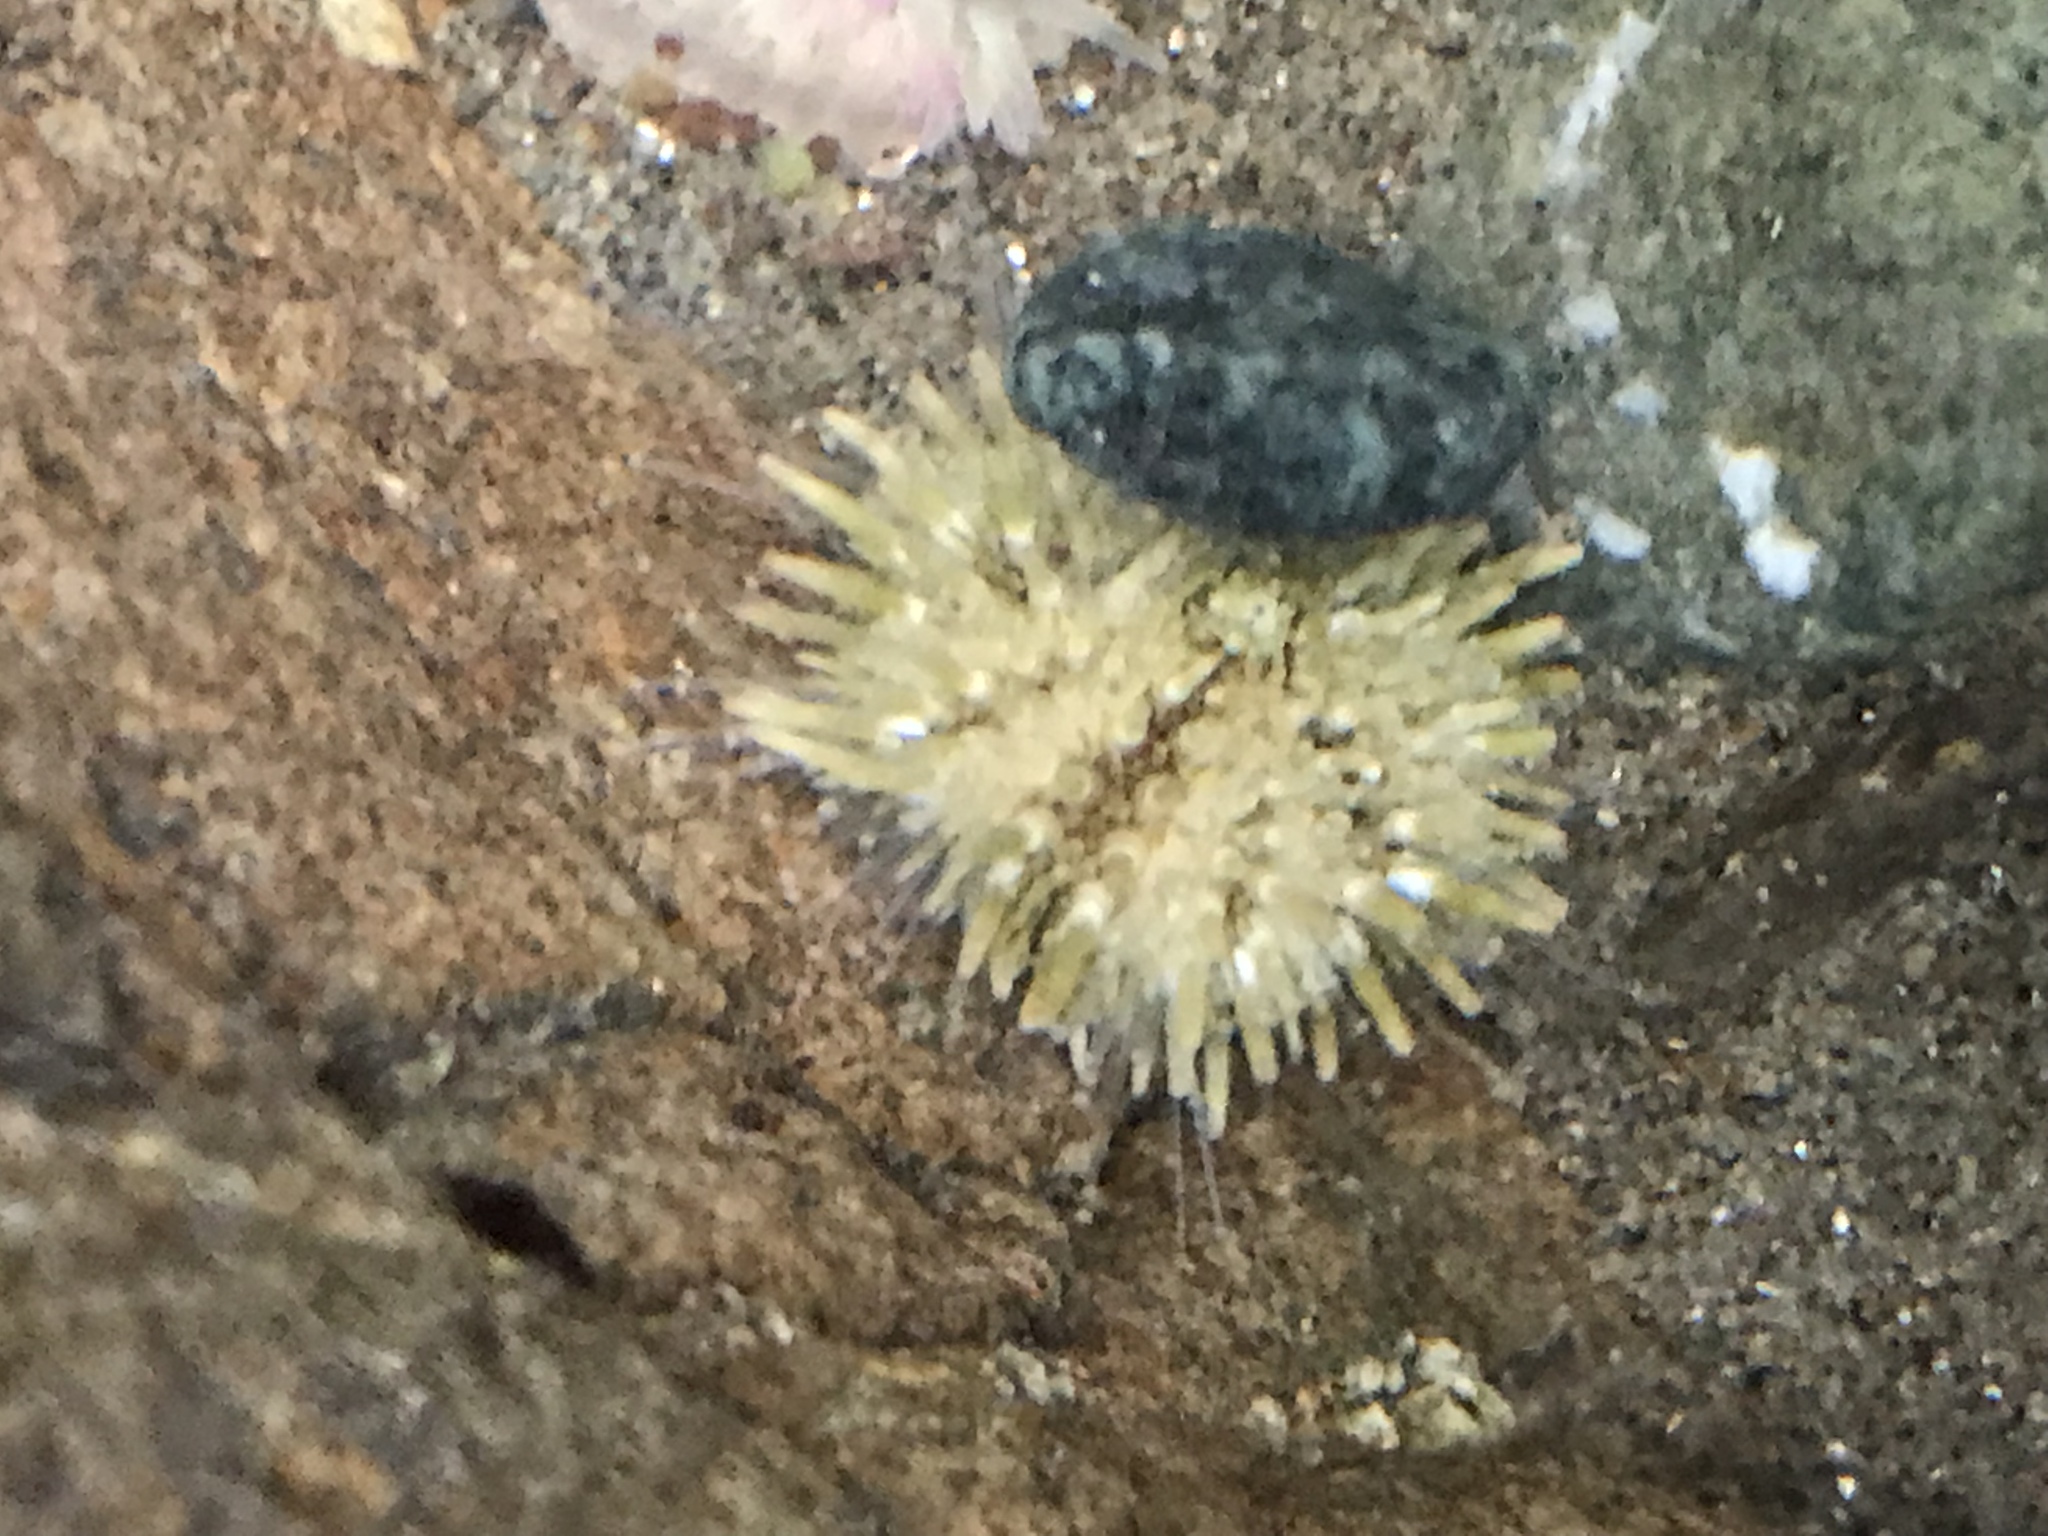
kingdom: Animalia
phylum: Echinodermata
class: Echinoidea
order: Camarodonta
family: Strongylocentrotidae
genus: Strongylocentrotus
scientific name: Strongylocentrotus purpuratus
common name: Purple sea urchin
